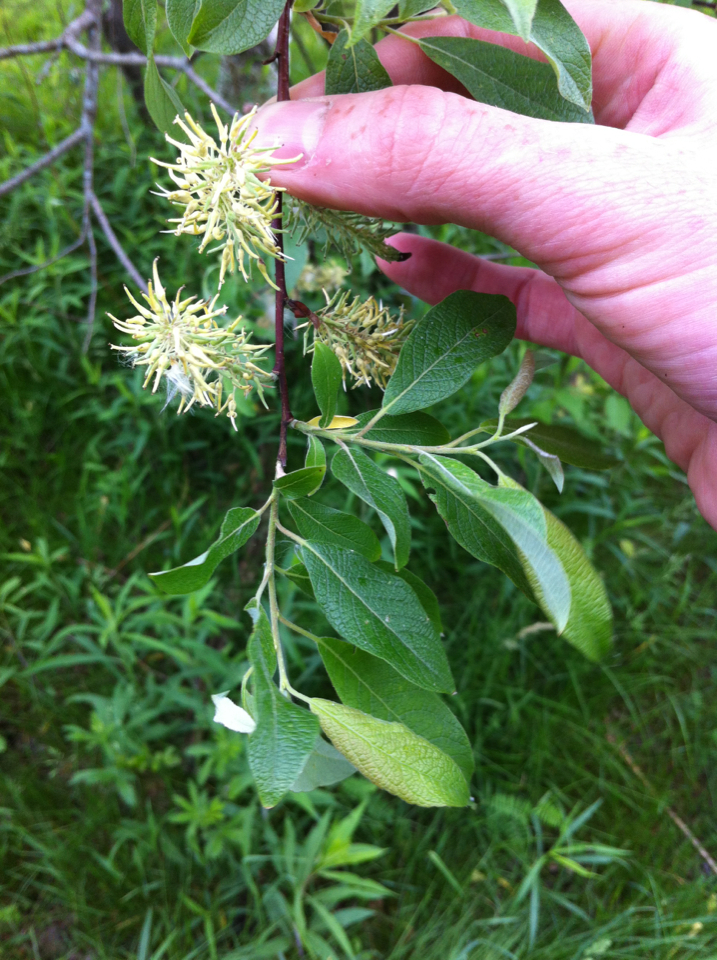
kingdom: Plantae
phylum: Tracheophyta
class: Magnoliopsida
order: Malpighiales
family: Salicaceae
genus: Salix
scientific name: Salix bebbiana
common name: Bebb's willow
